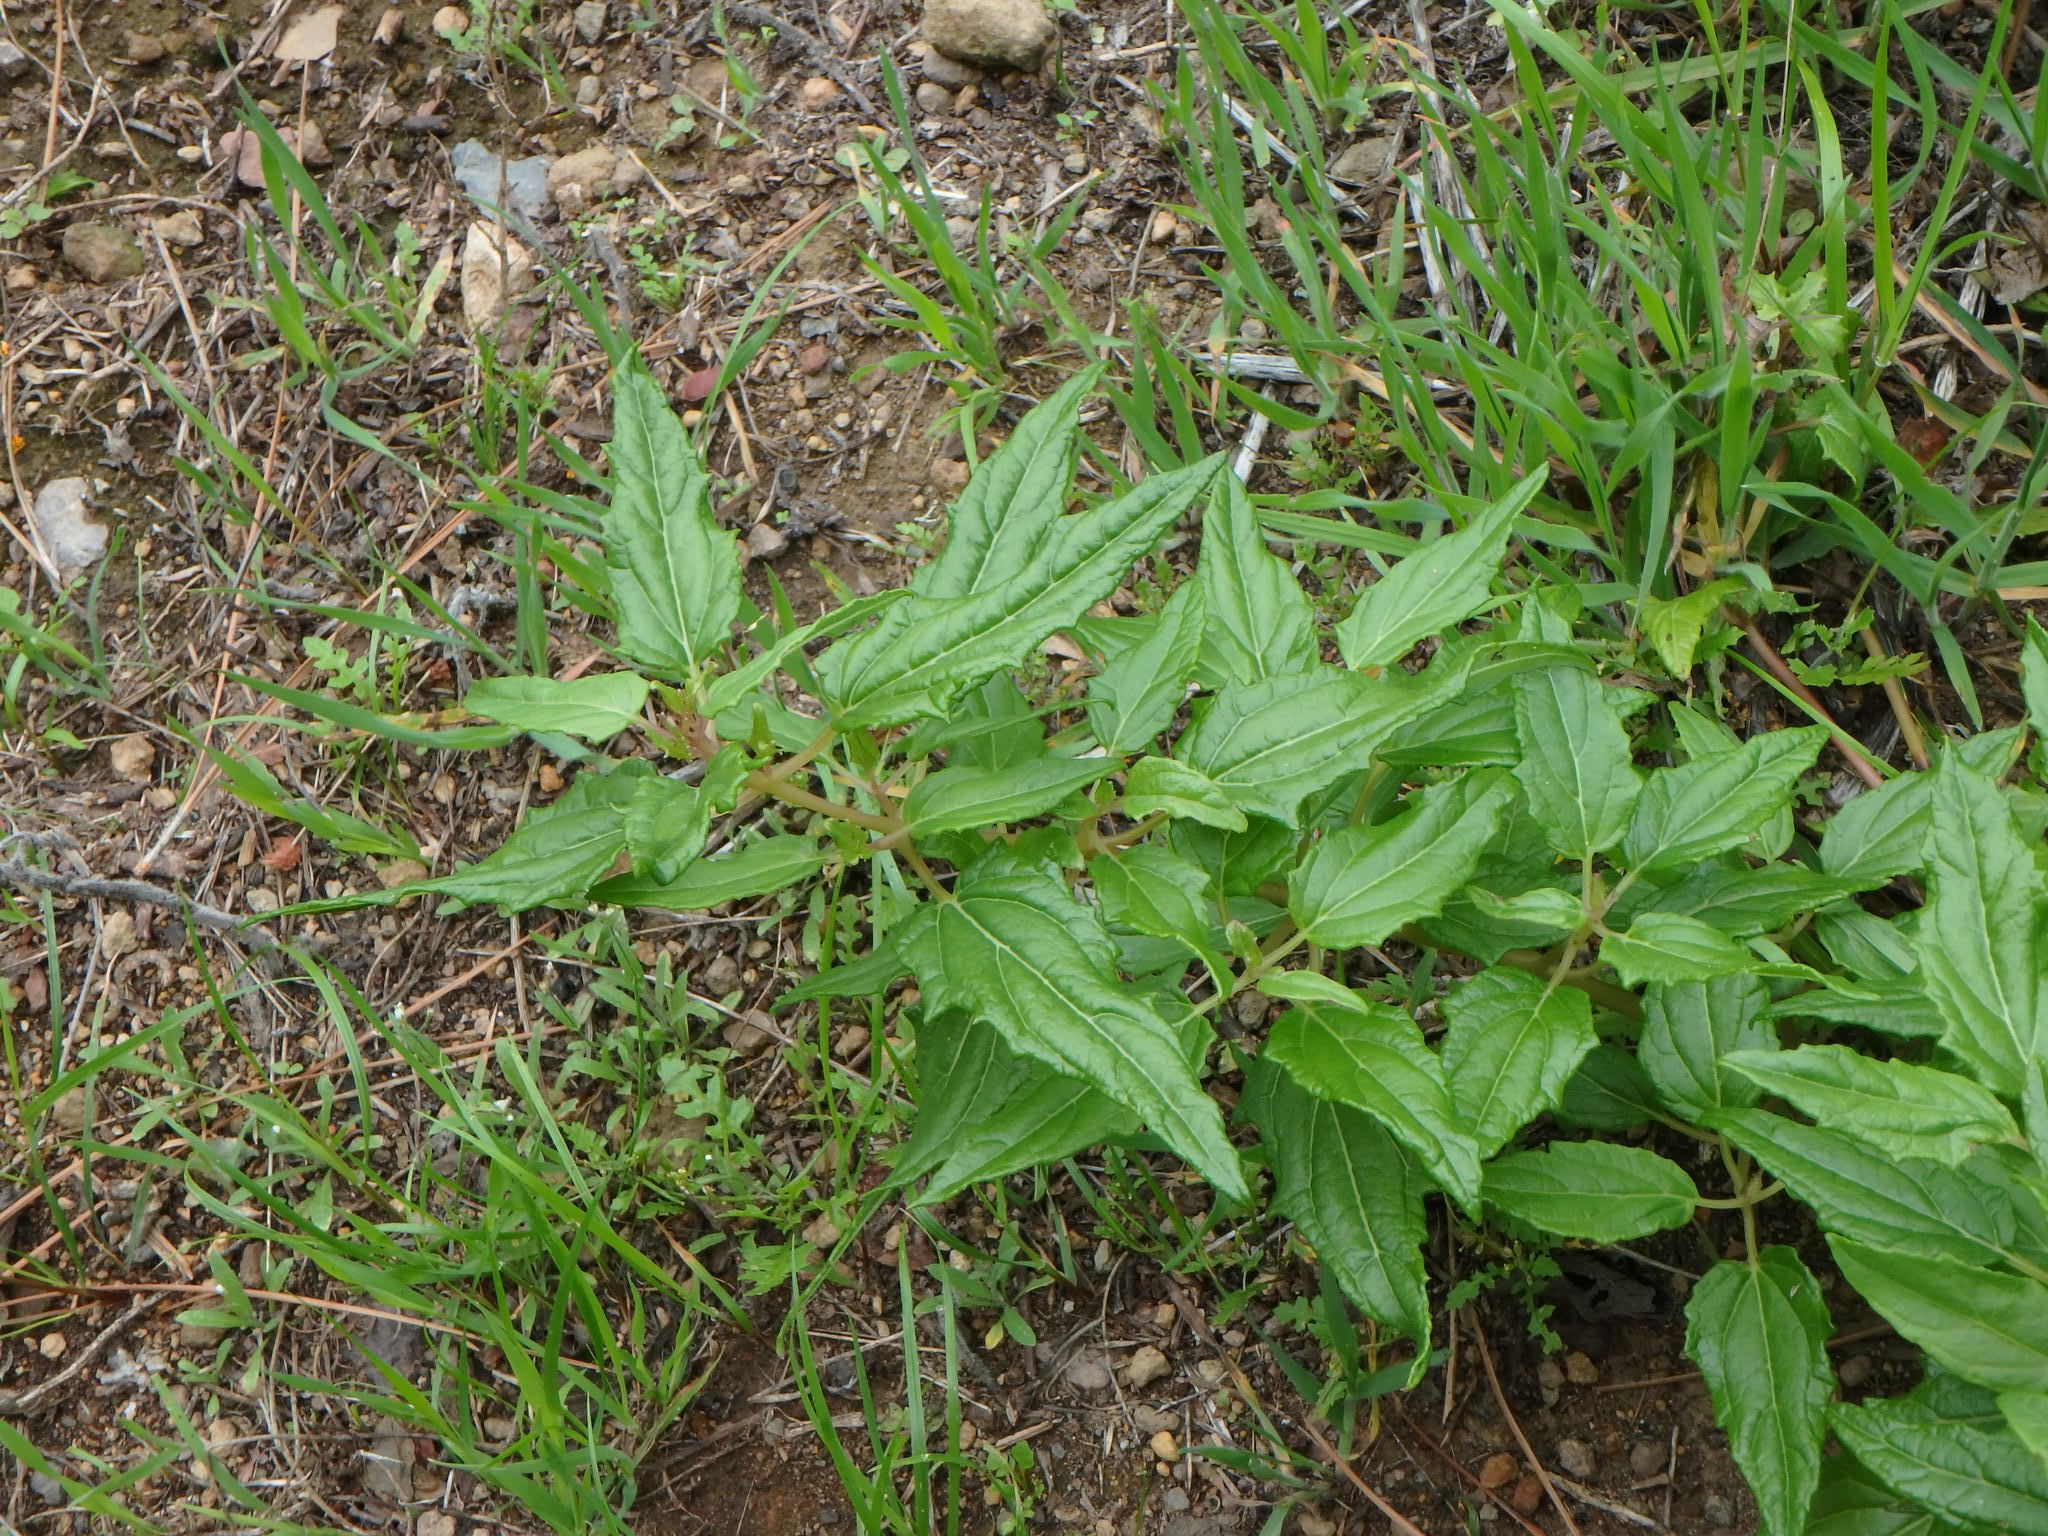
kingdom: Plantae
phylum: Tracheophyta
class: Magnoliopsida
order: Asterales
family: Campanulaceae
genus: Canarina
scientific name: Canarina canariensis
